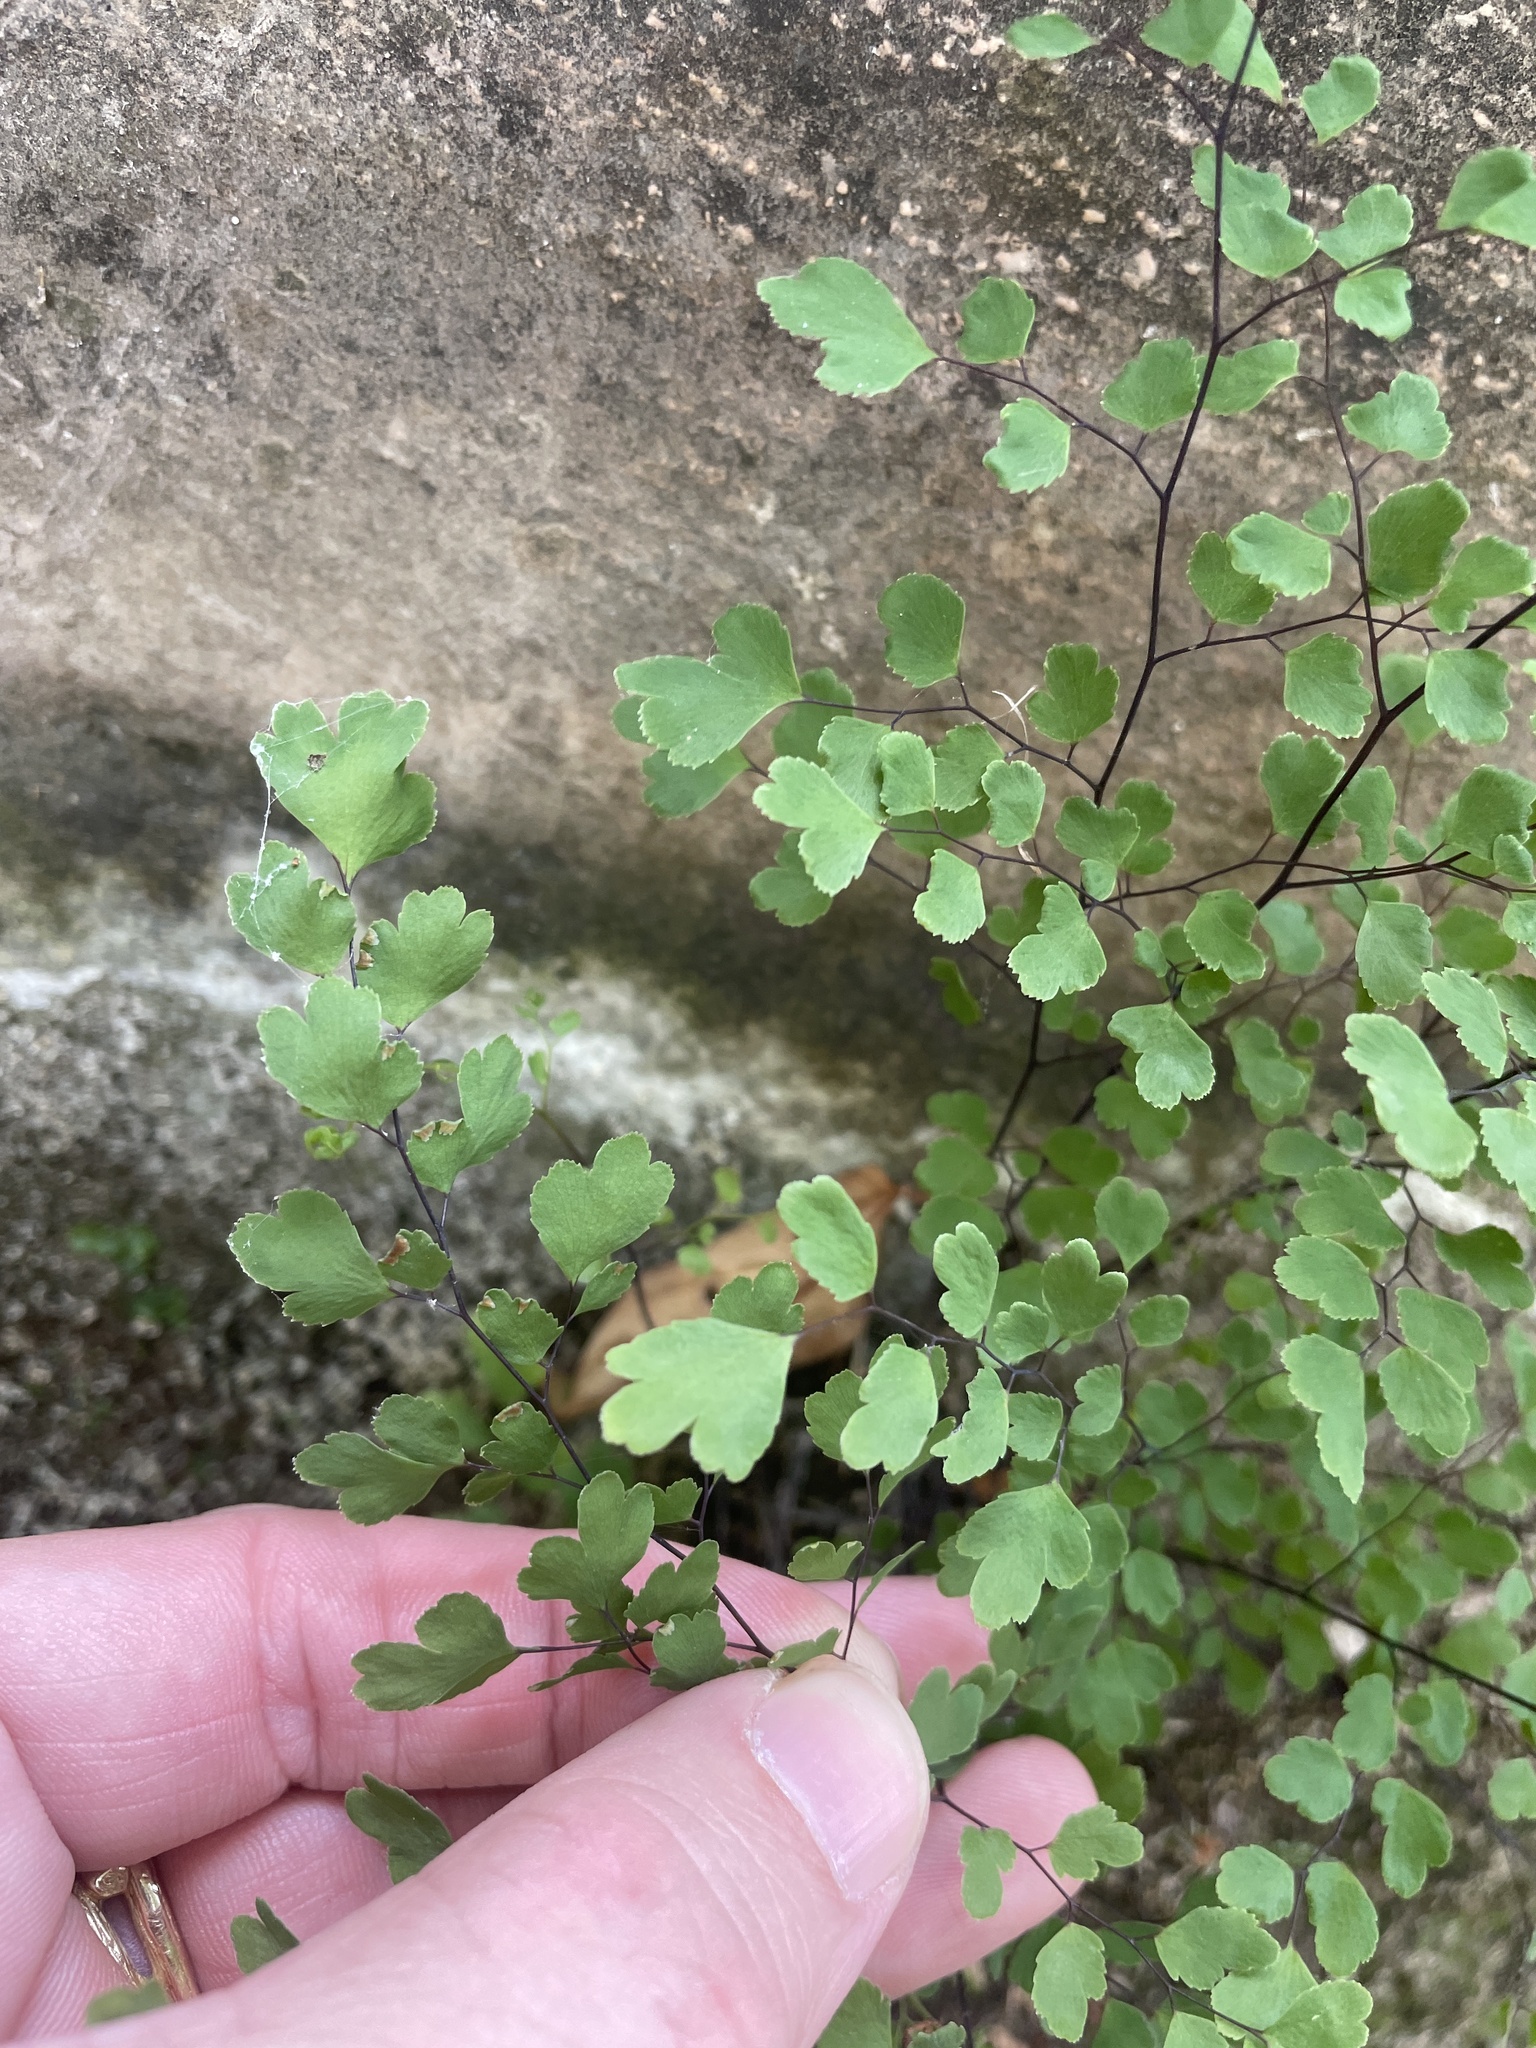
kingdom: Plantae
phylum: Tracheophyta
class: Polypodiopsida
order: Polypodiales
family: Pteridaceae
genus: Adiantum
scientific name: Adiantum capillus-veneris
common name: Maidenhair fern
